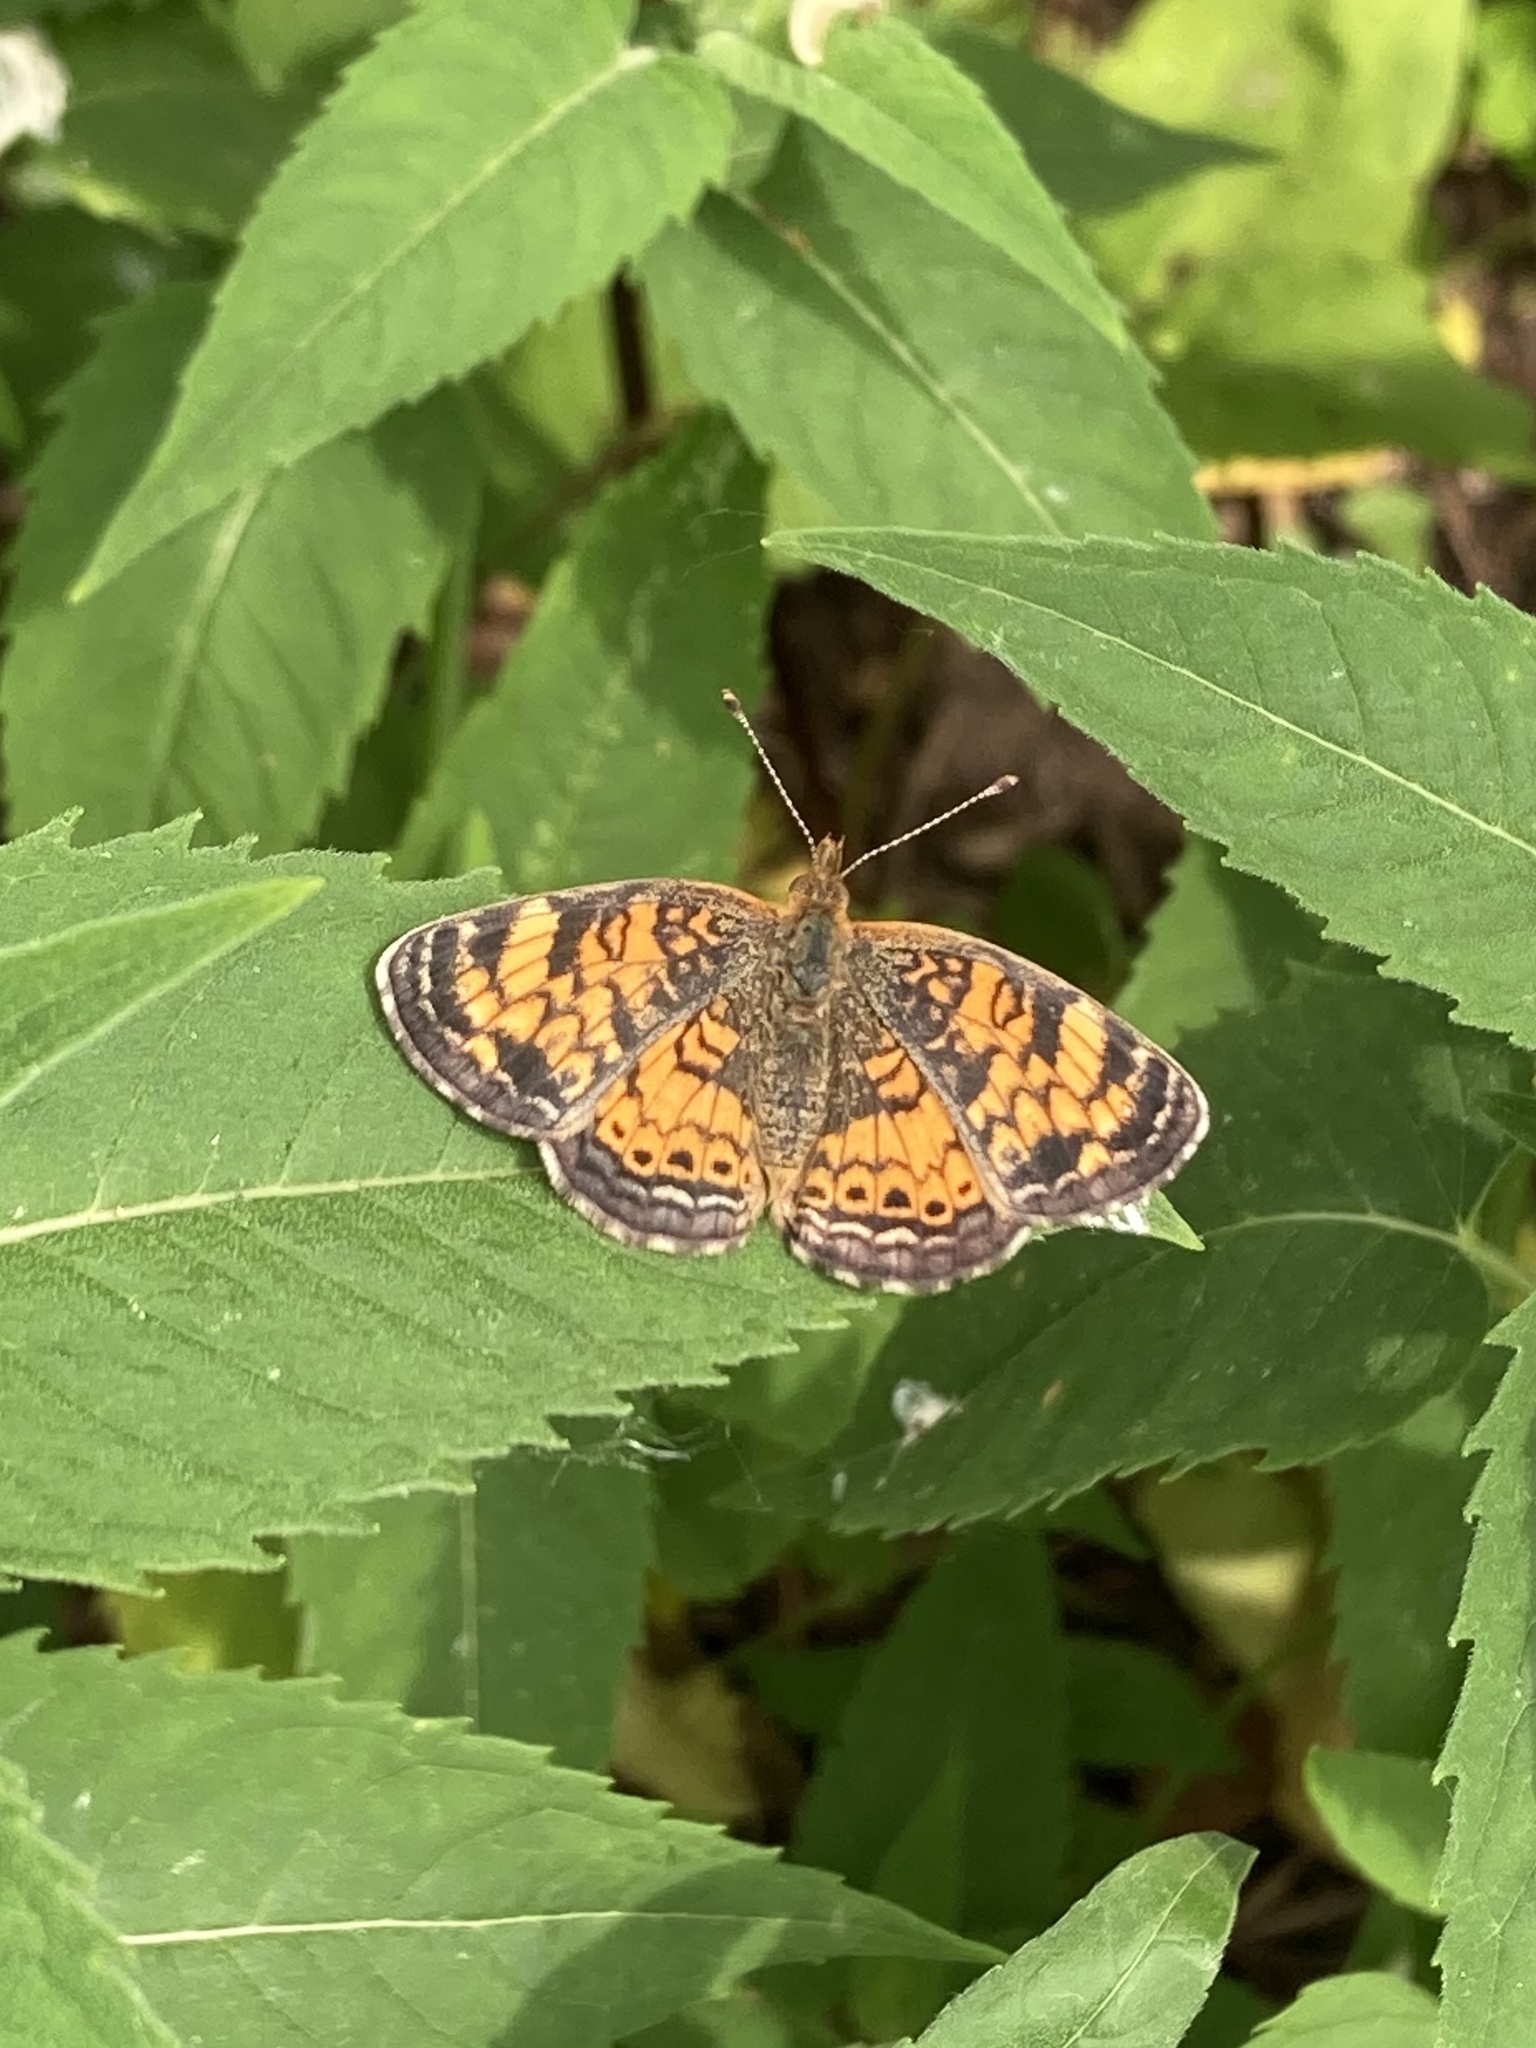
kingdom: Animalia
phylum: Arthropoda
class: Insecta
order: Lepidoptera
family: Nymphalidae
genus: Phyciodes
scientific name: Phyciodes tharos
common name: Pearl crescent
